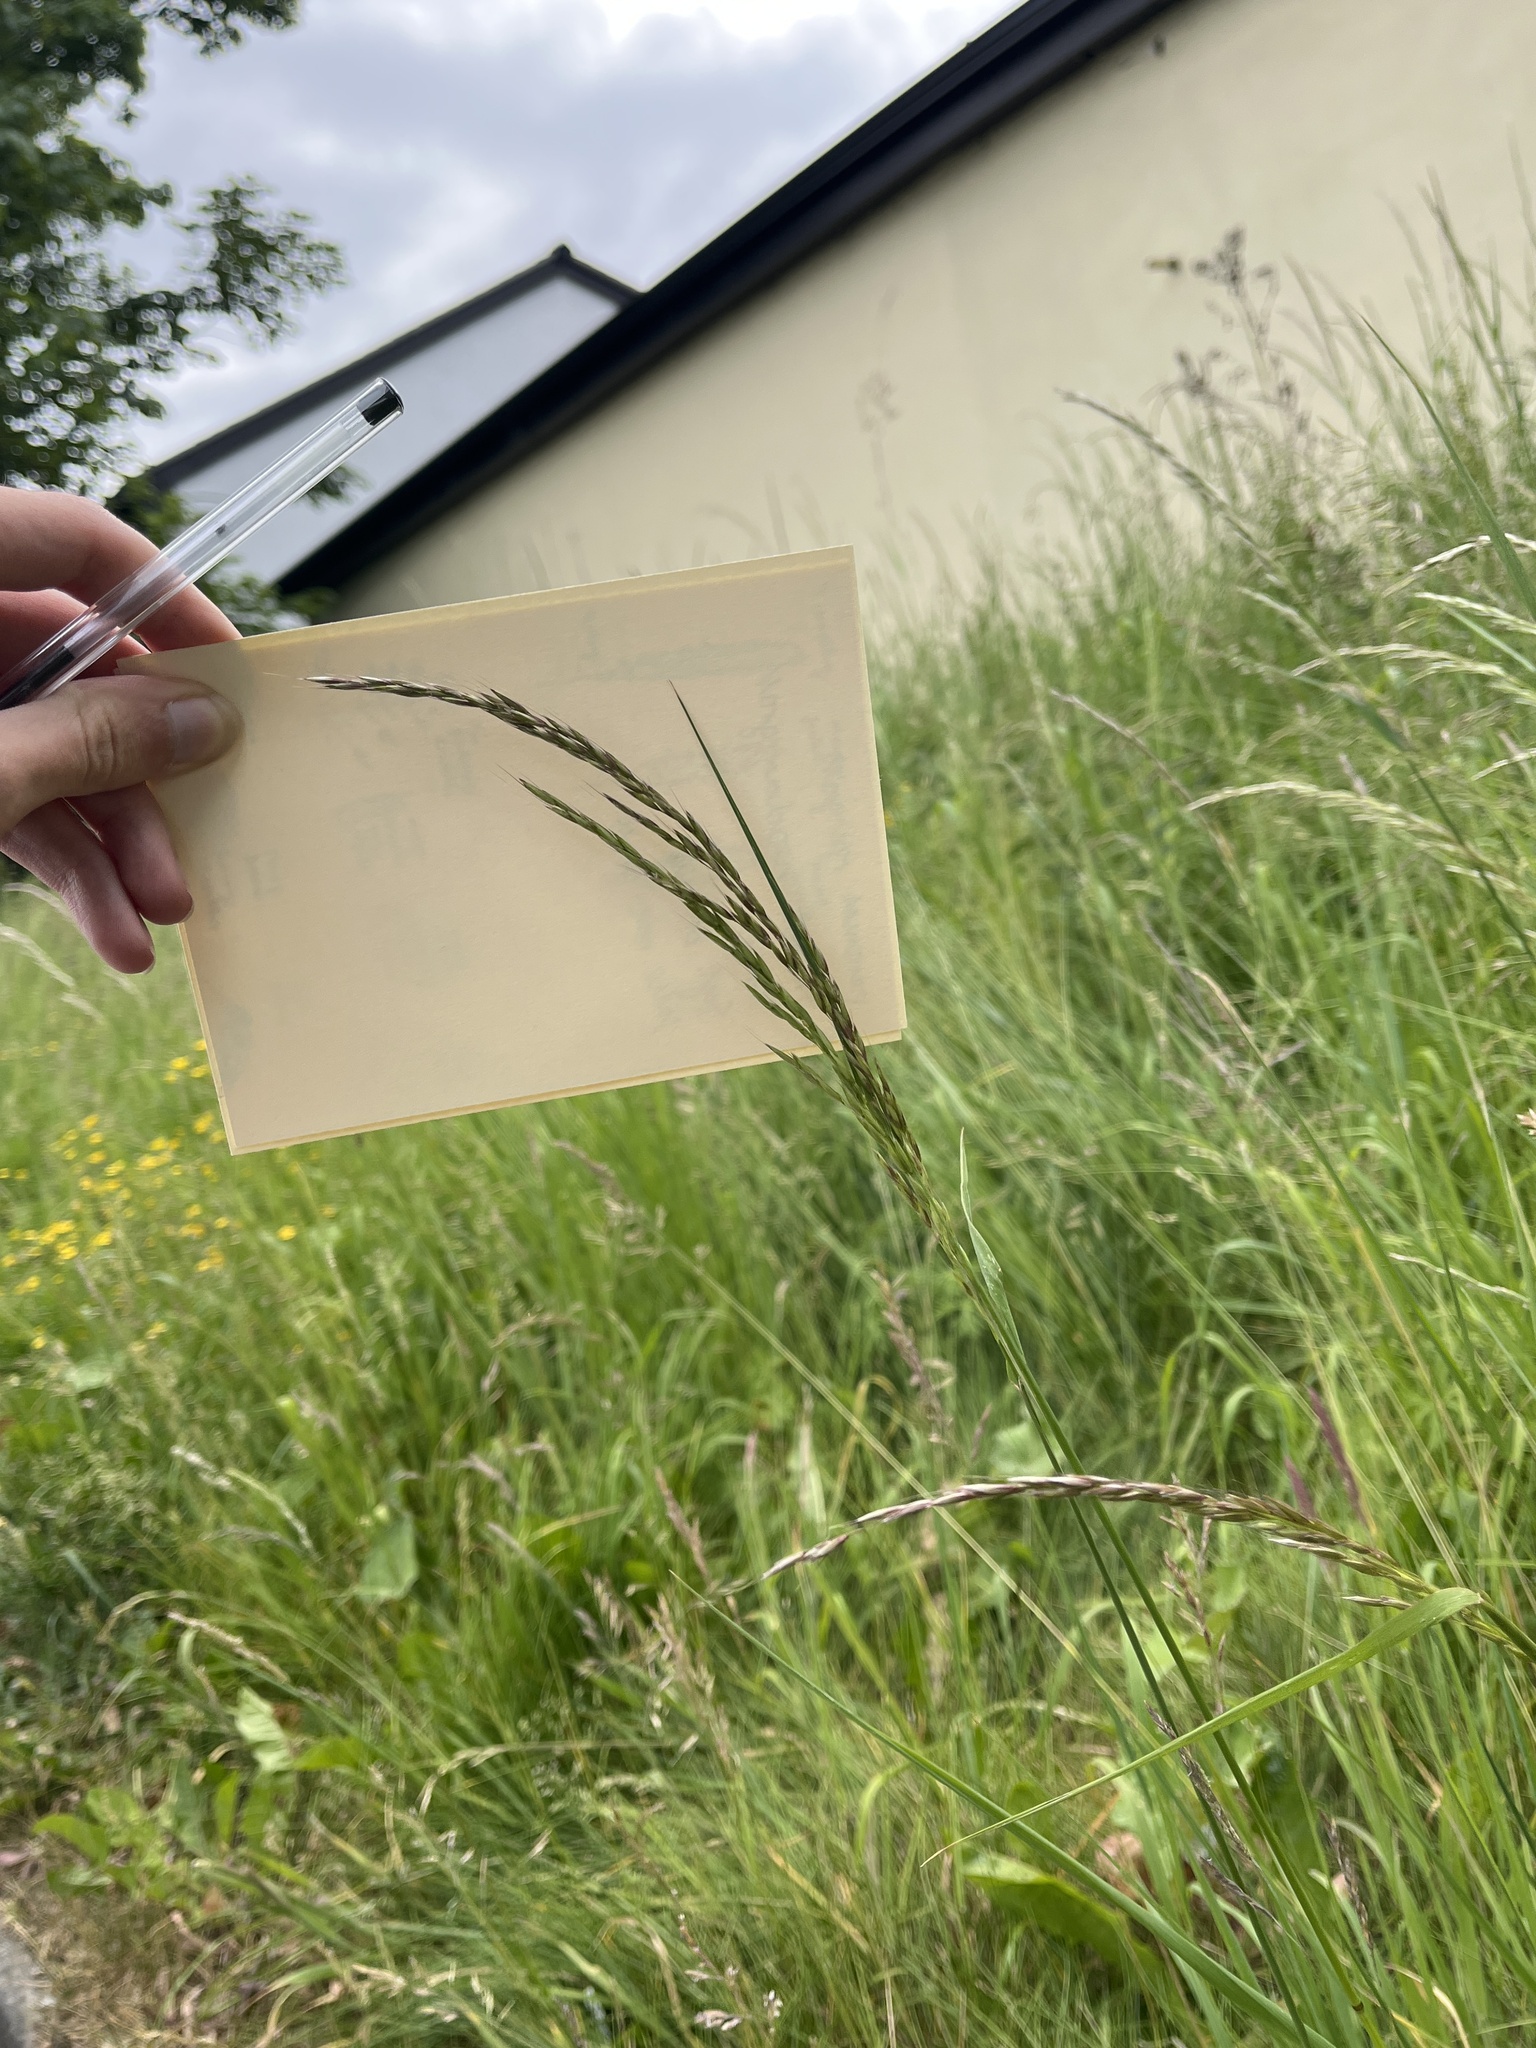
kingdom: Plantae
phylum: Tracheophyta
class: Liliopsida
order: Poales
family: Poaceae
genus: Arrhenatherum
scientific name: Arrhenatherum elatius
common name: Tall oatgrass
